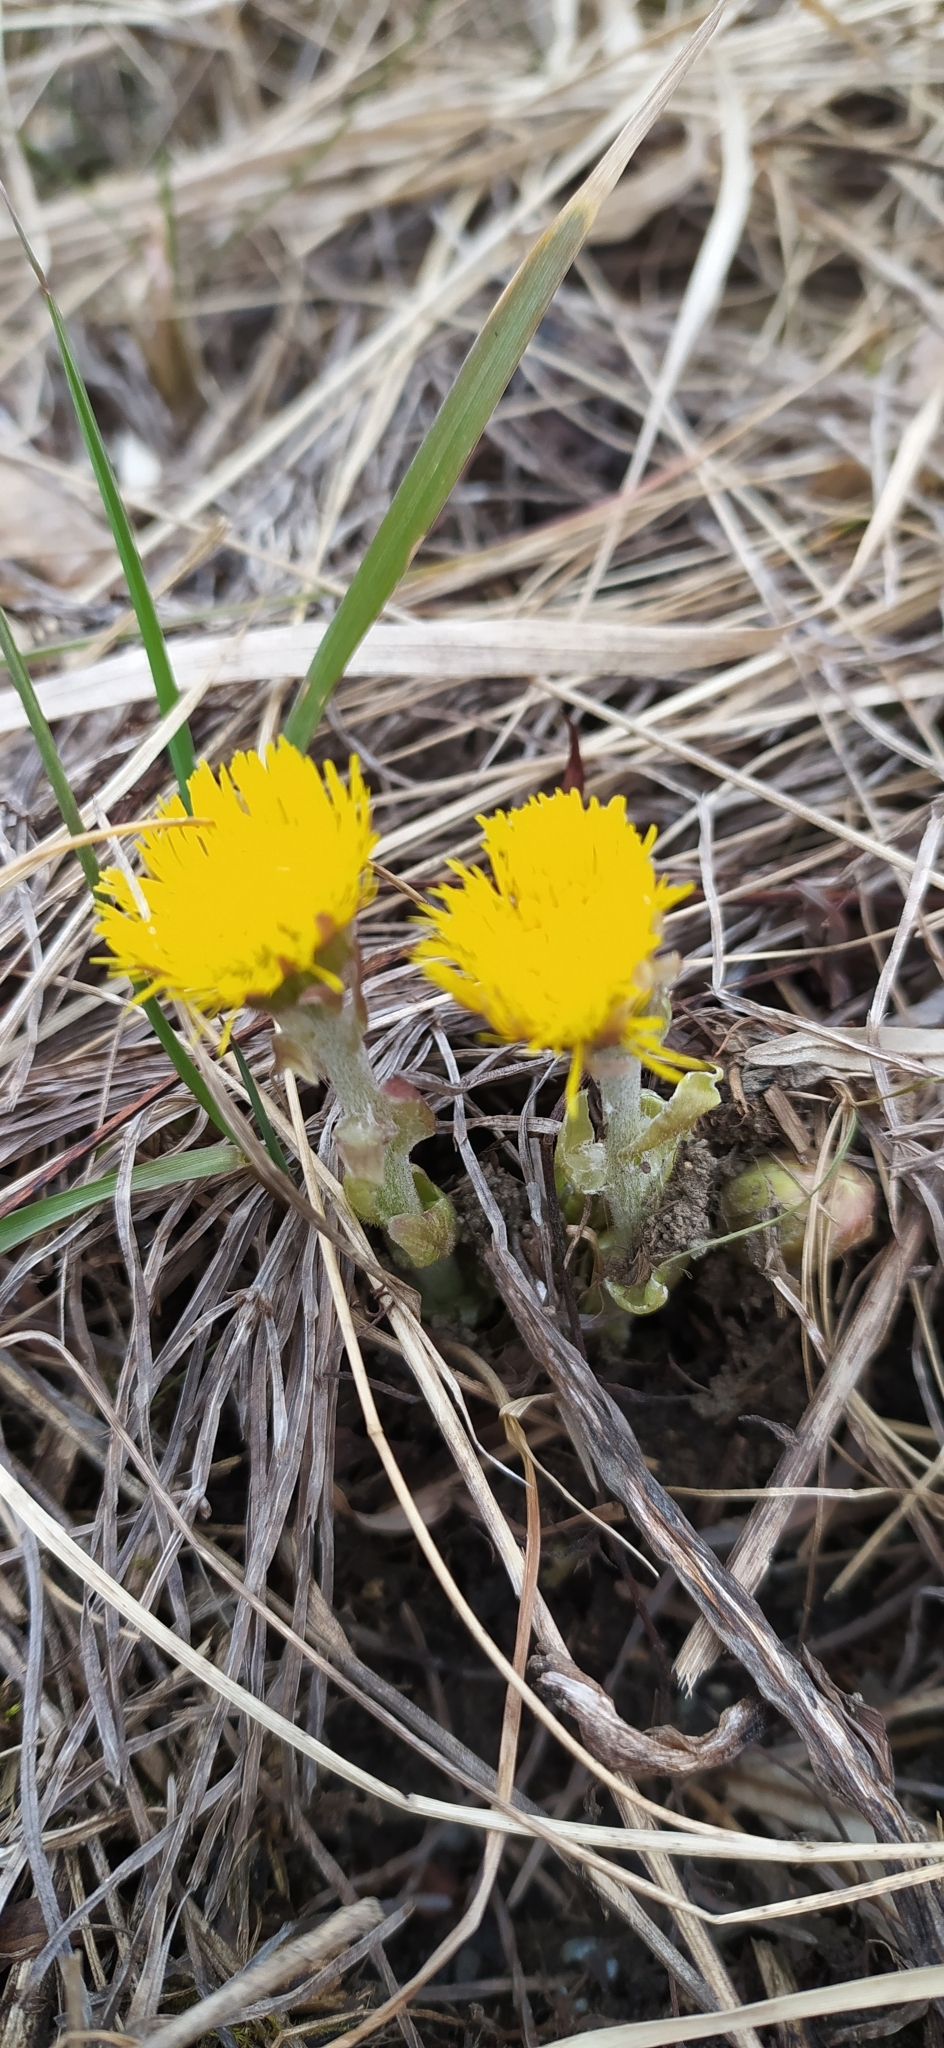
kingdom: Plantae
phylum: Tracheophyta
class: Magnoliopsida
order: Asterales
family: Asteraceae
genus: Tussilago
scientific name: Tussilago farfara
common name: Coltsfoot
